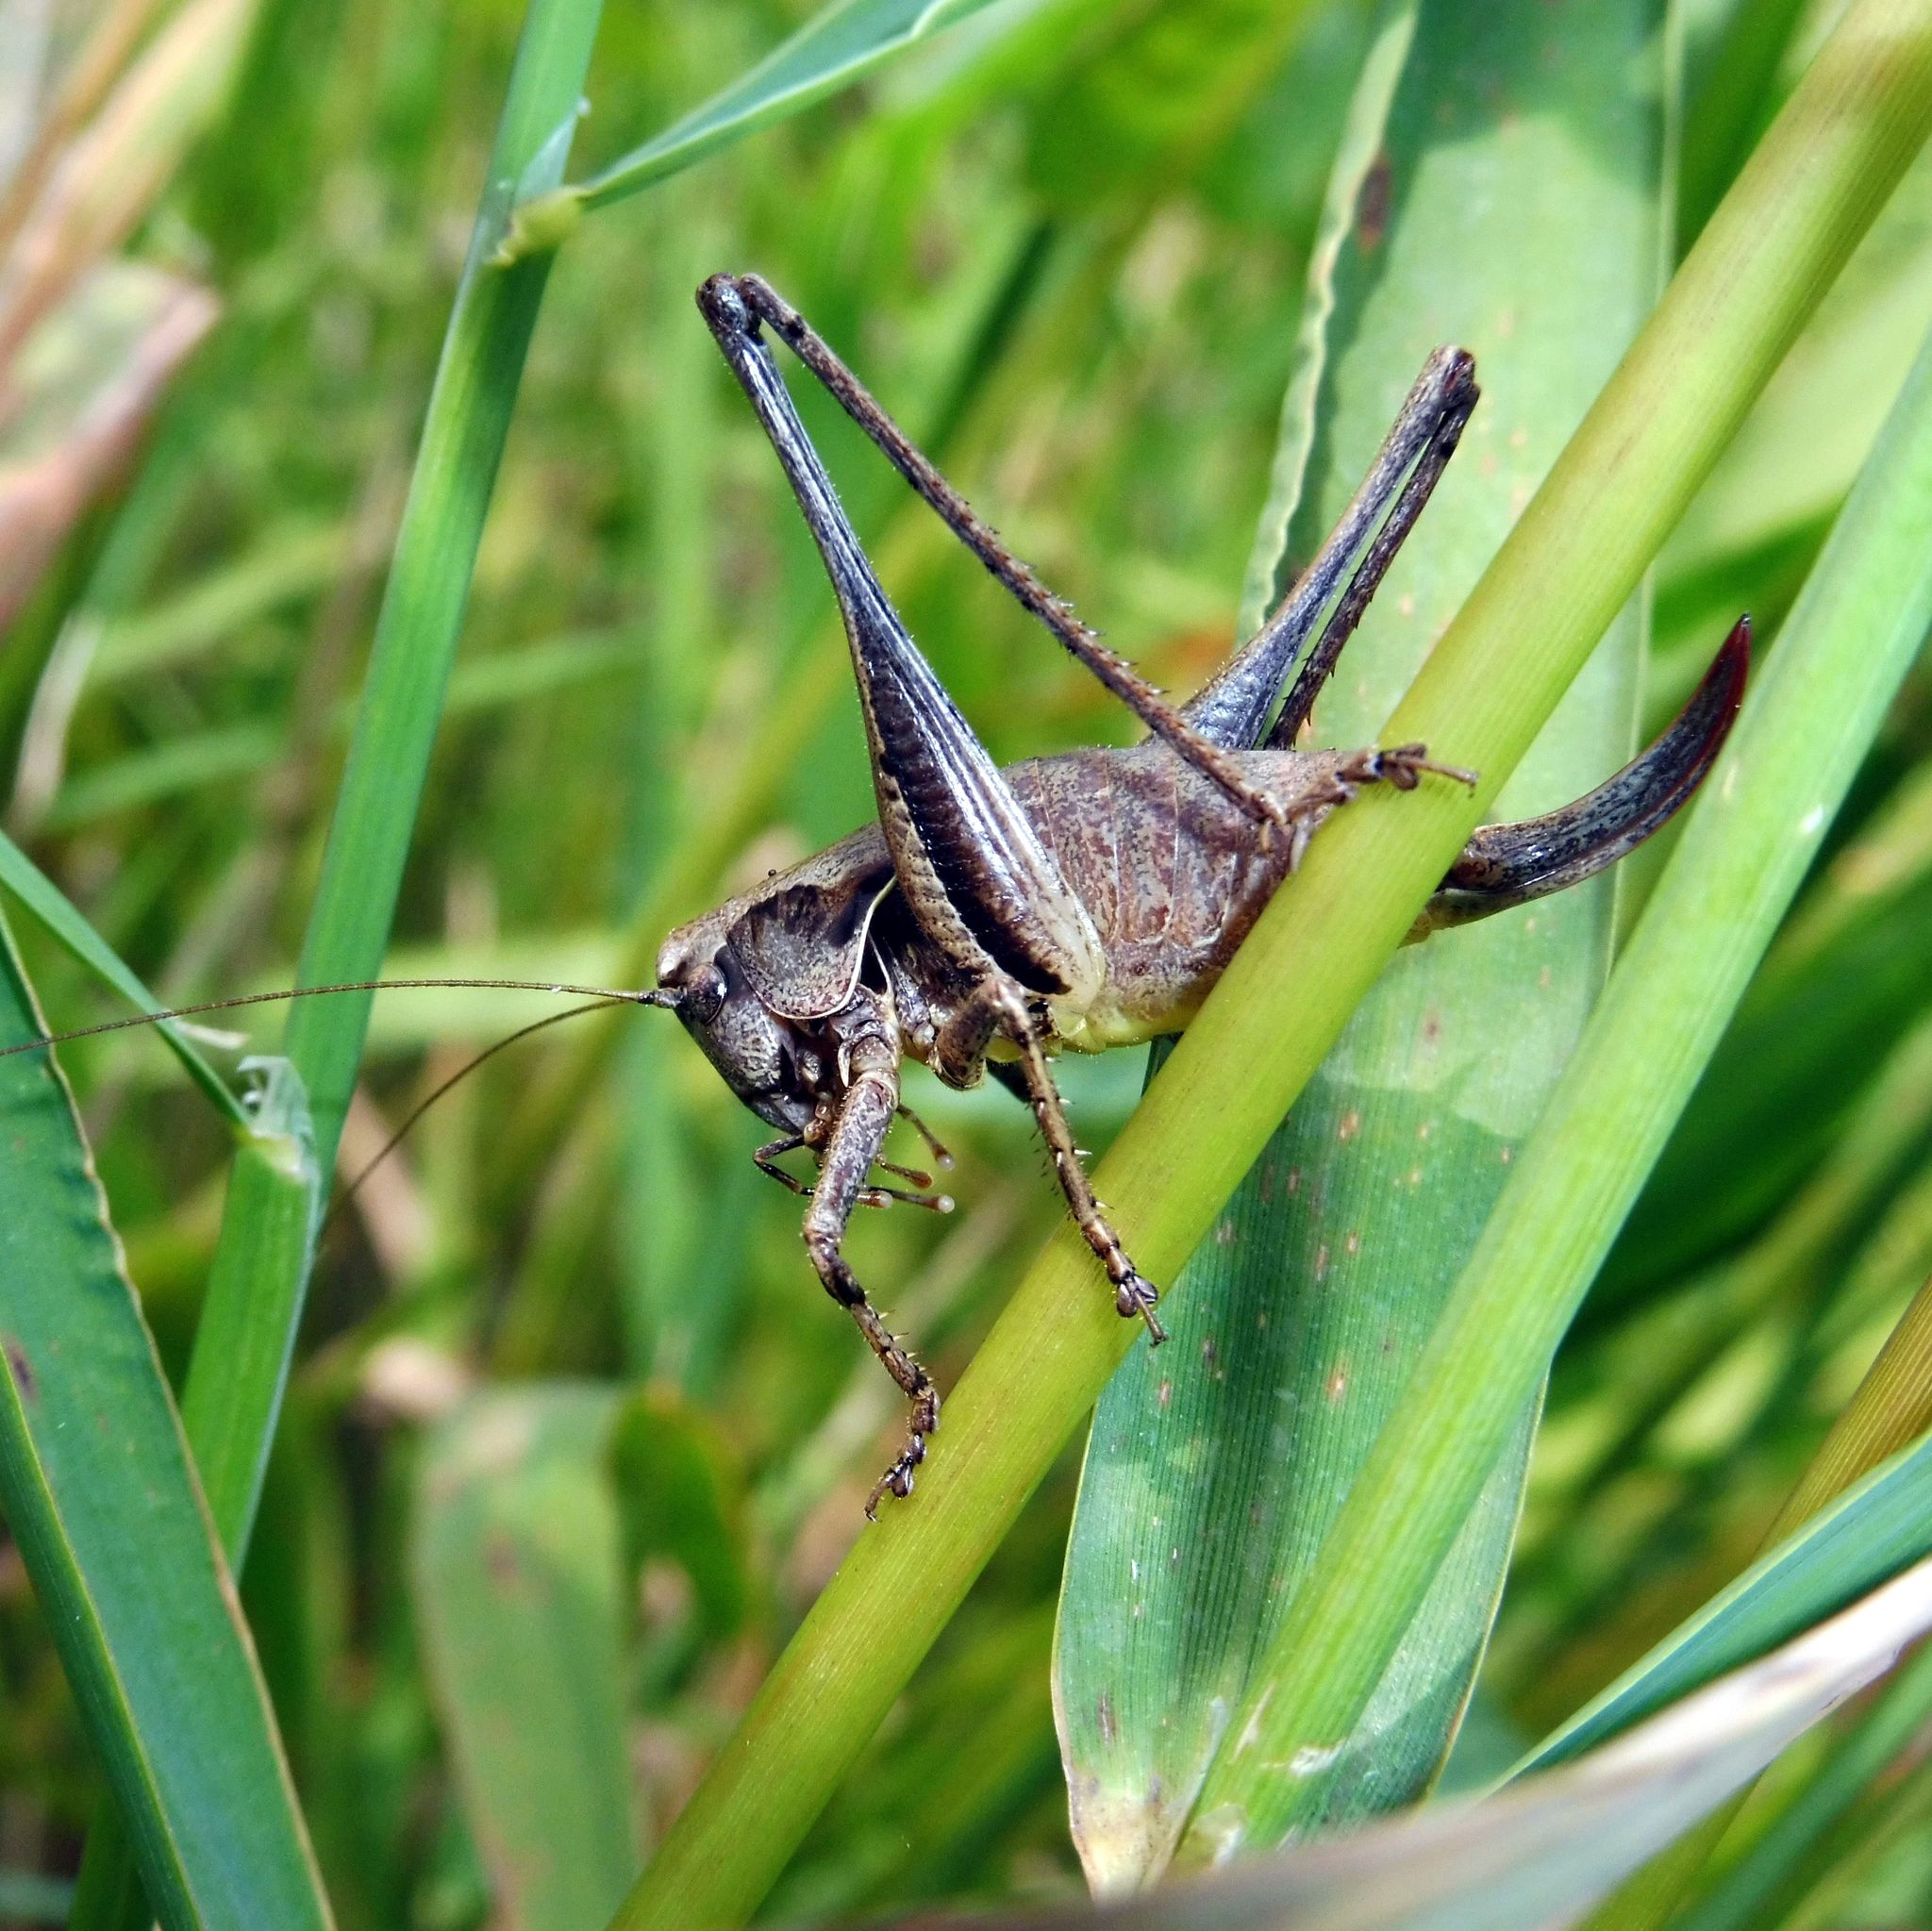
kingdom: Animalia
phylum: Arthropoda
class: Insecta
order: Orthoptera
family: Tettigoniidae
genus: Pholidoptera
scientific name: Pholidoptera griseoaptera
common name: Dark bush-cricket
